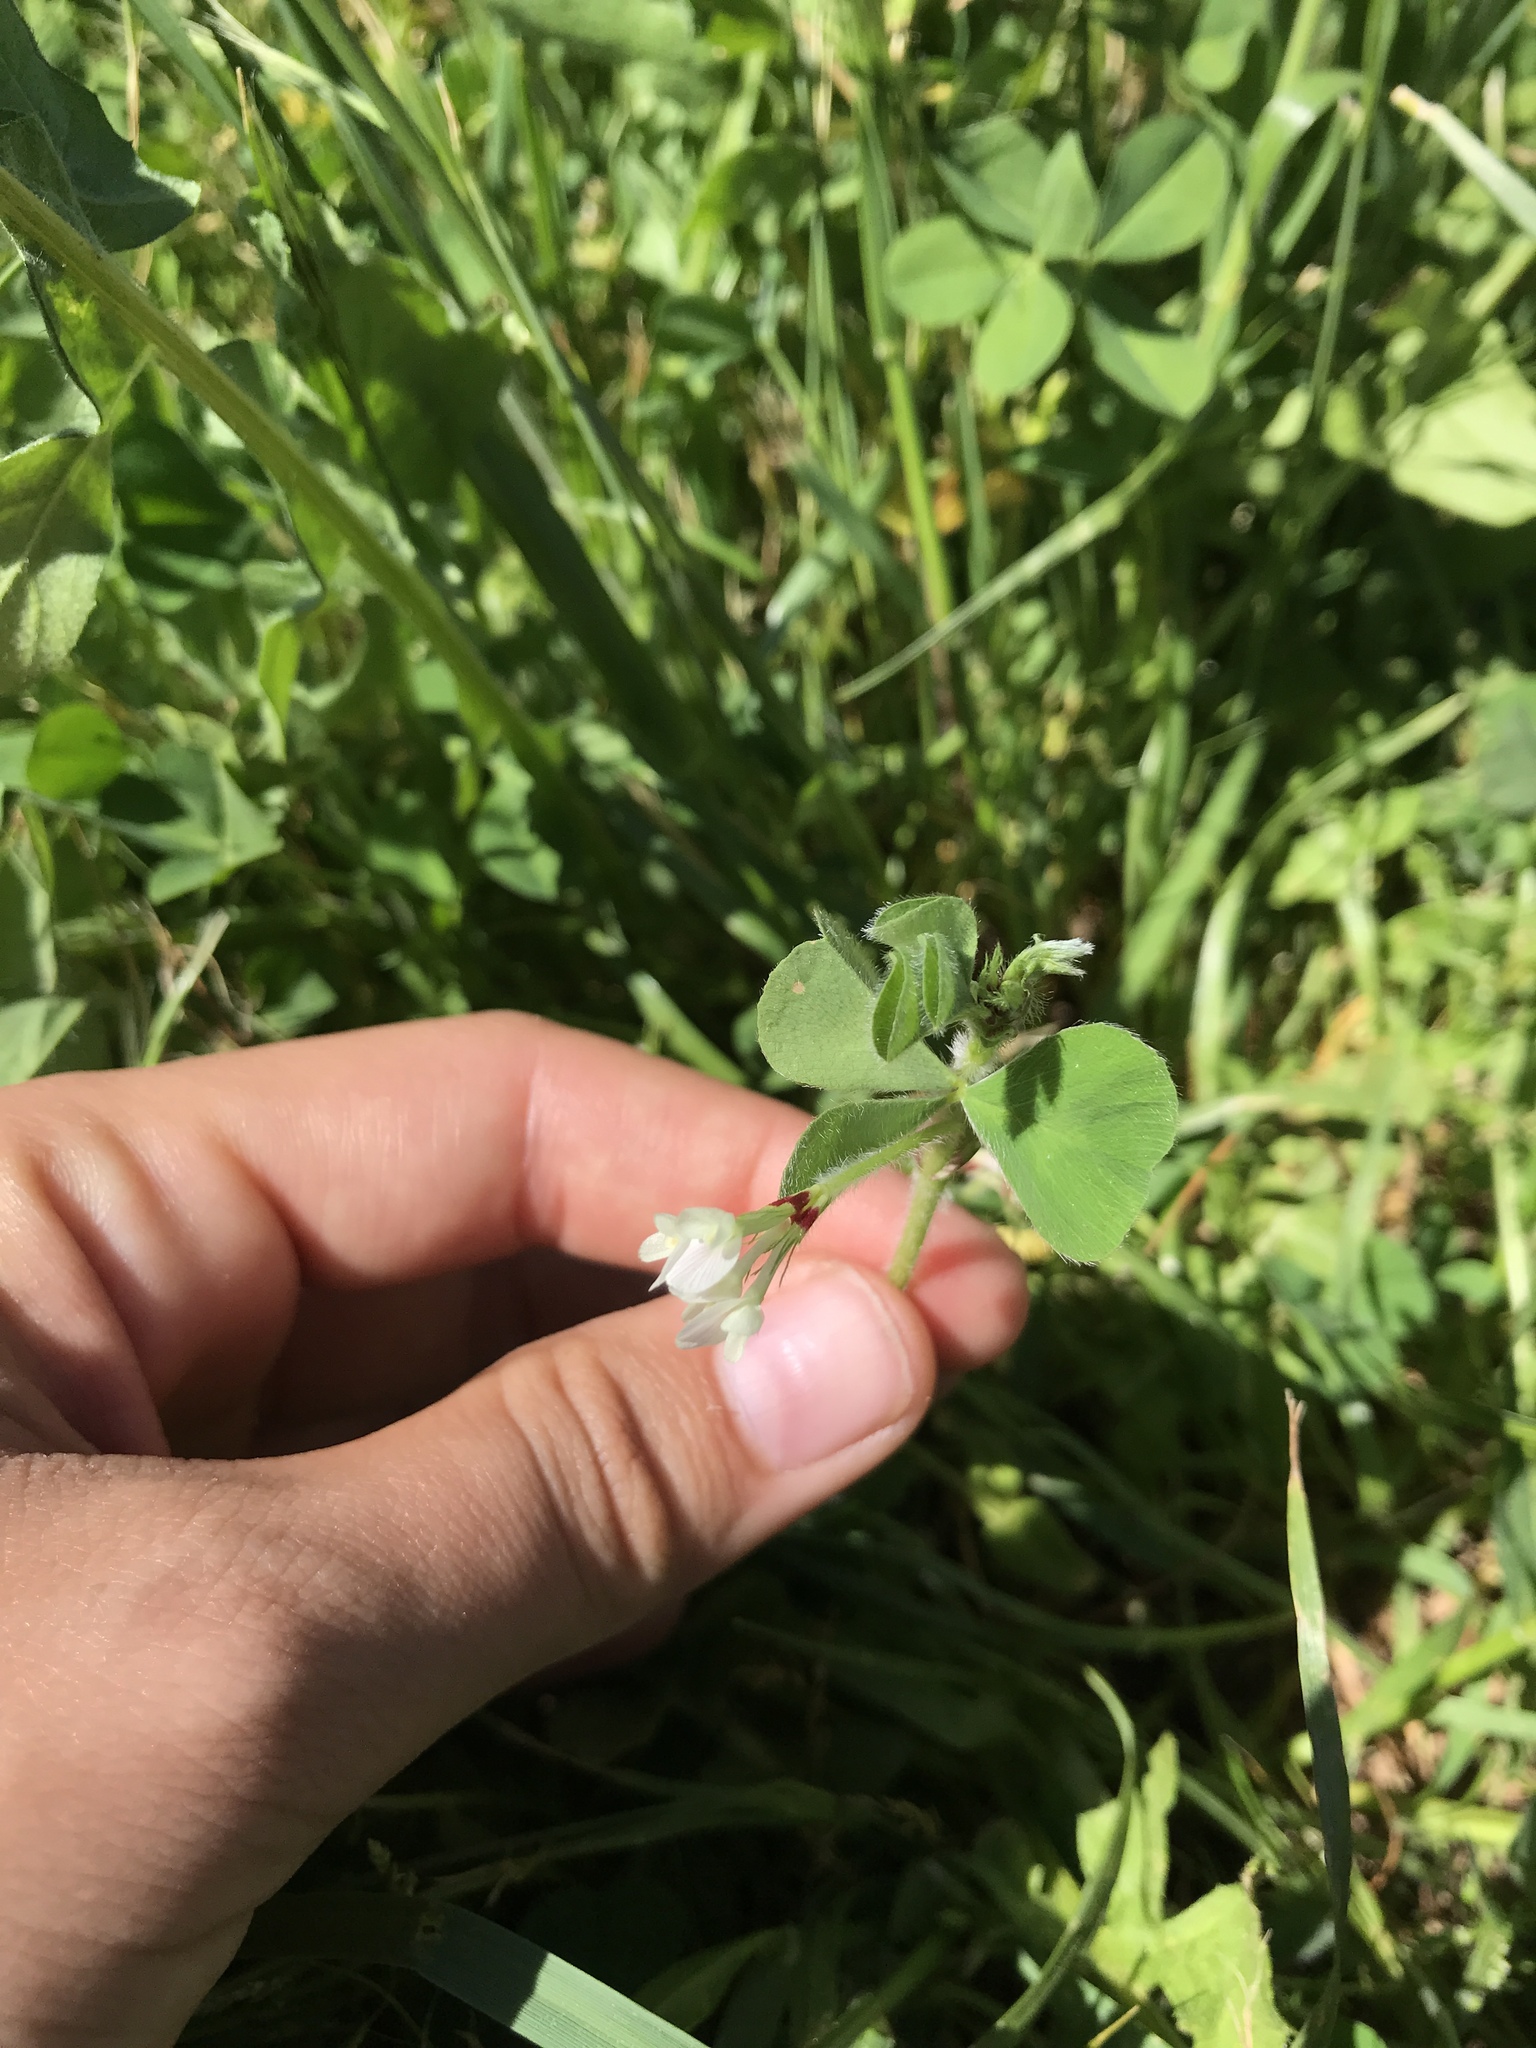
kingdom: Plantae
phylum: Tracheophyta
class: Magnoliopsida
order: Fabales
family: Fabaceae
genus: Trifolium
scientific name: Trifolium subterraneum
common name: Subterranean clover
